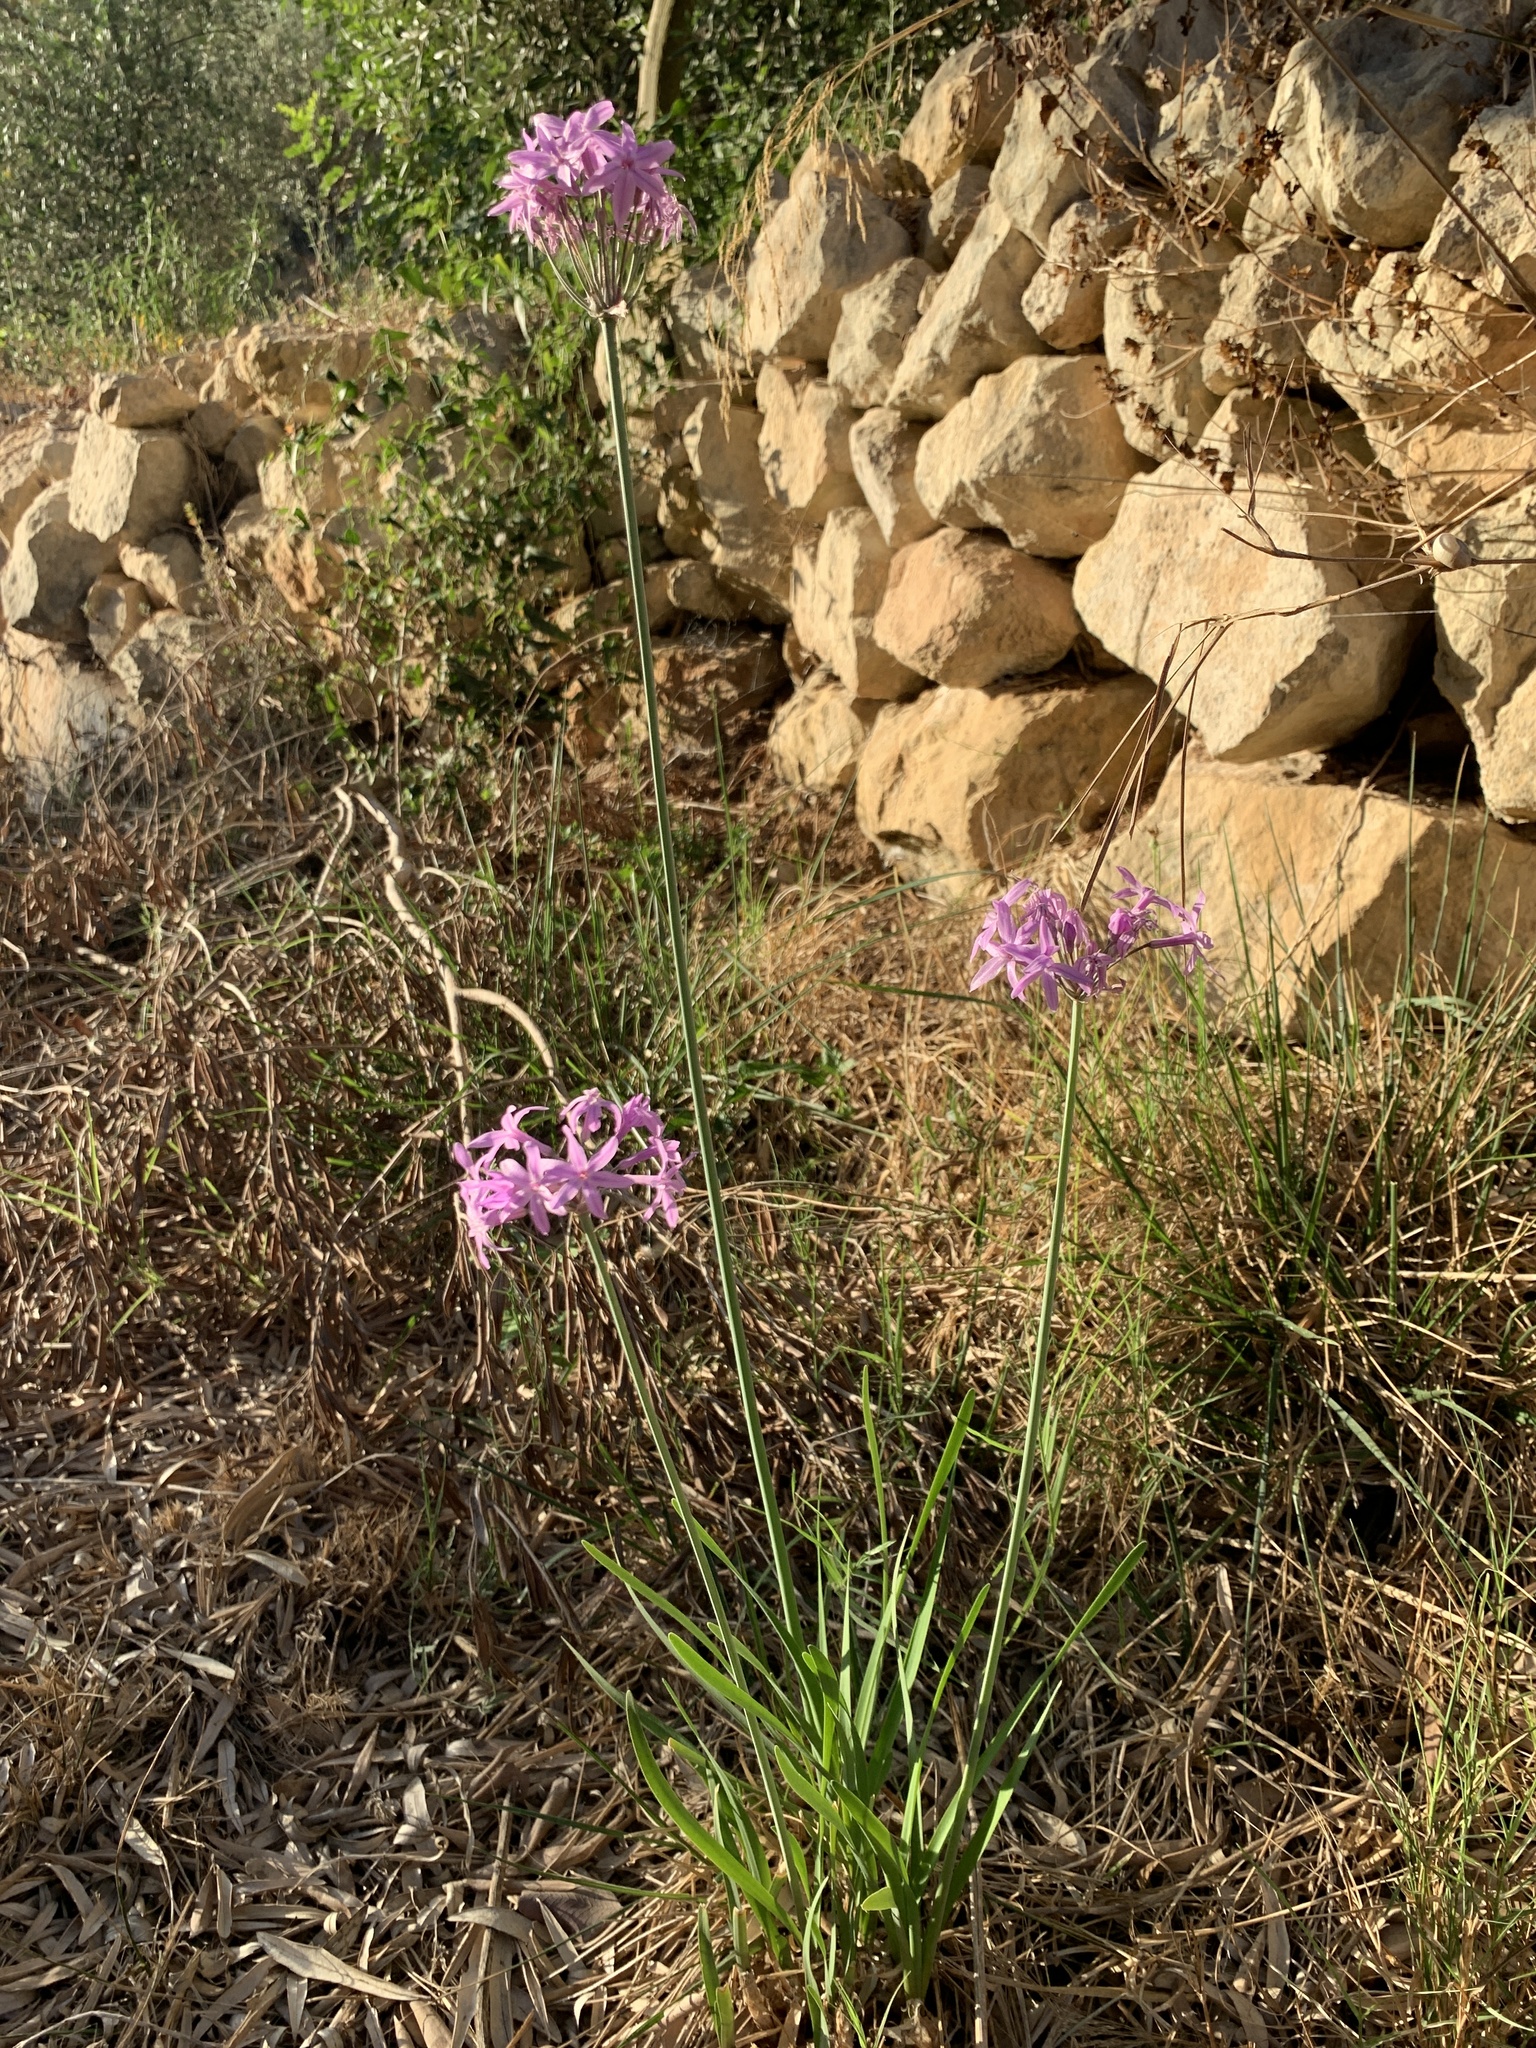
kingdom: Plantae
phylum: Tracheophyta
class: Liliopsida
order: Asparagales
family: Amaryllidaceae
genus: Tulbaghia
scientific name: Tulbaghia violacea
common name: Society garlic
